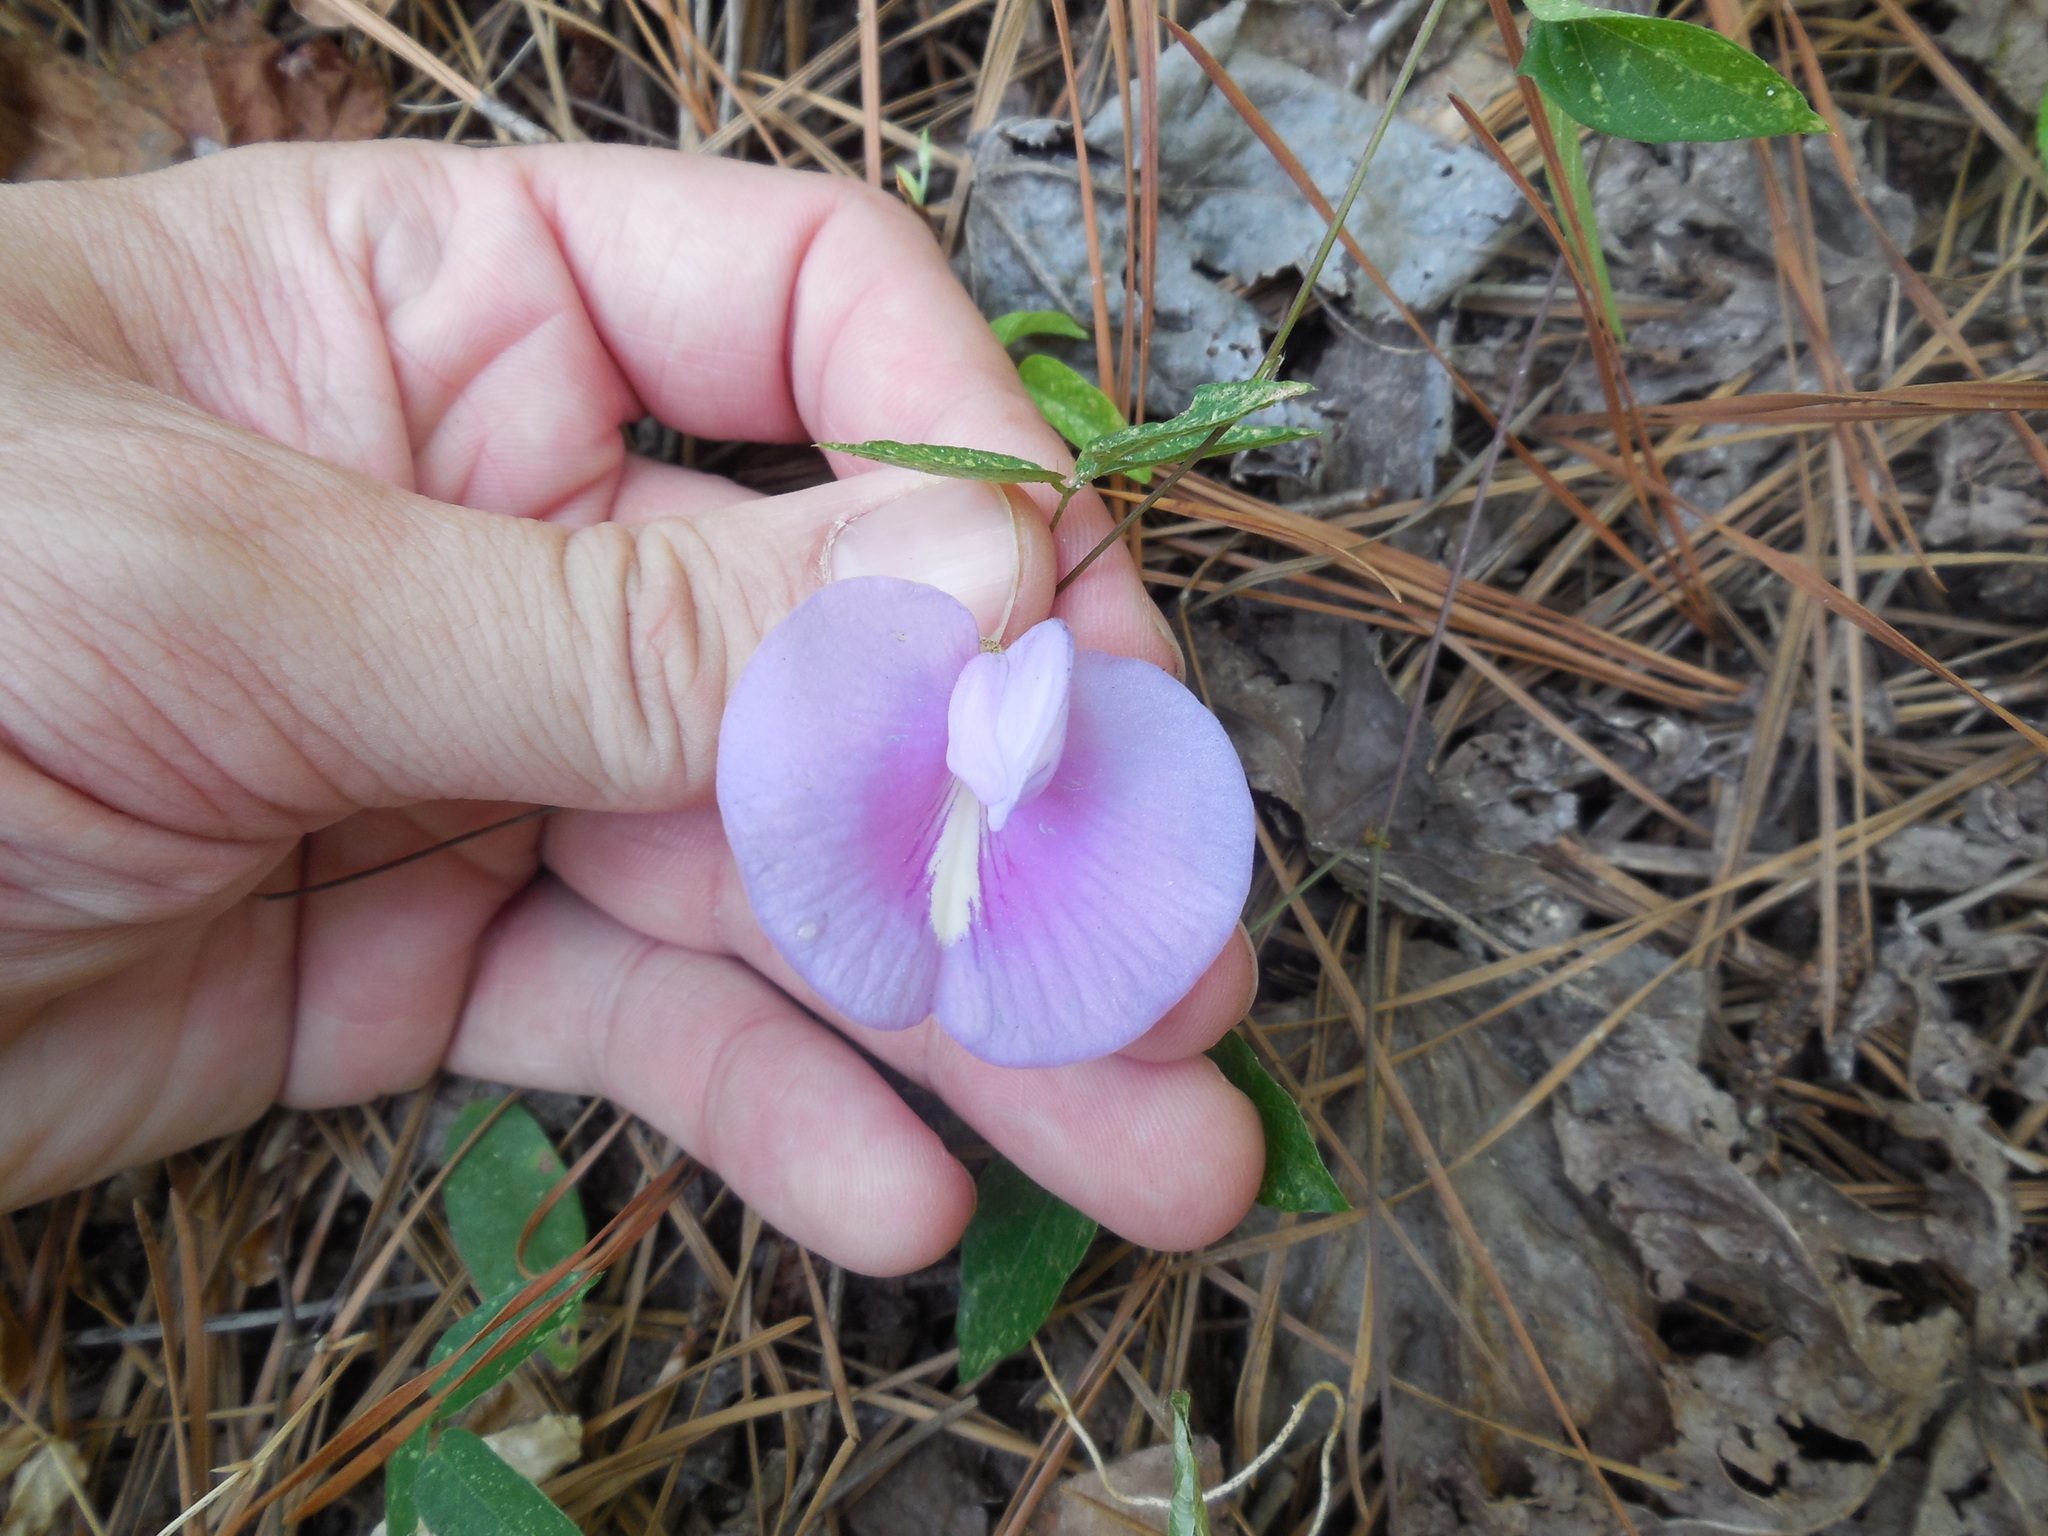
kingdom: Plantae
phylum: Tracheophyta
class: Magnoliopsida
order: Fabales
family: Fabaceae
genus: Centrosema
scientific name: Centrosema virginianum
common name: Butterfly-pea
